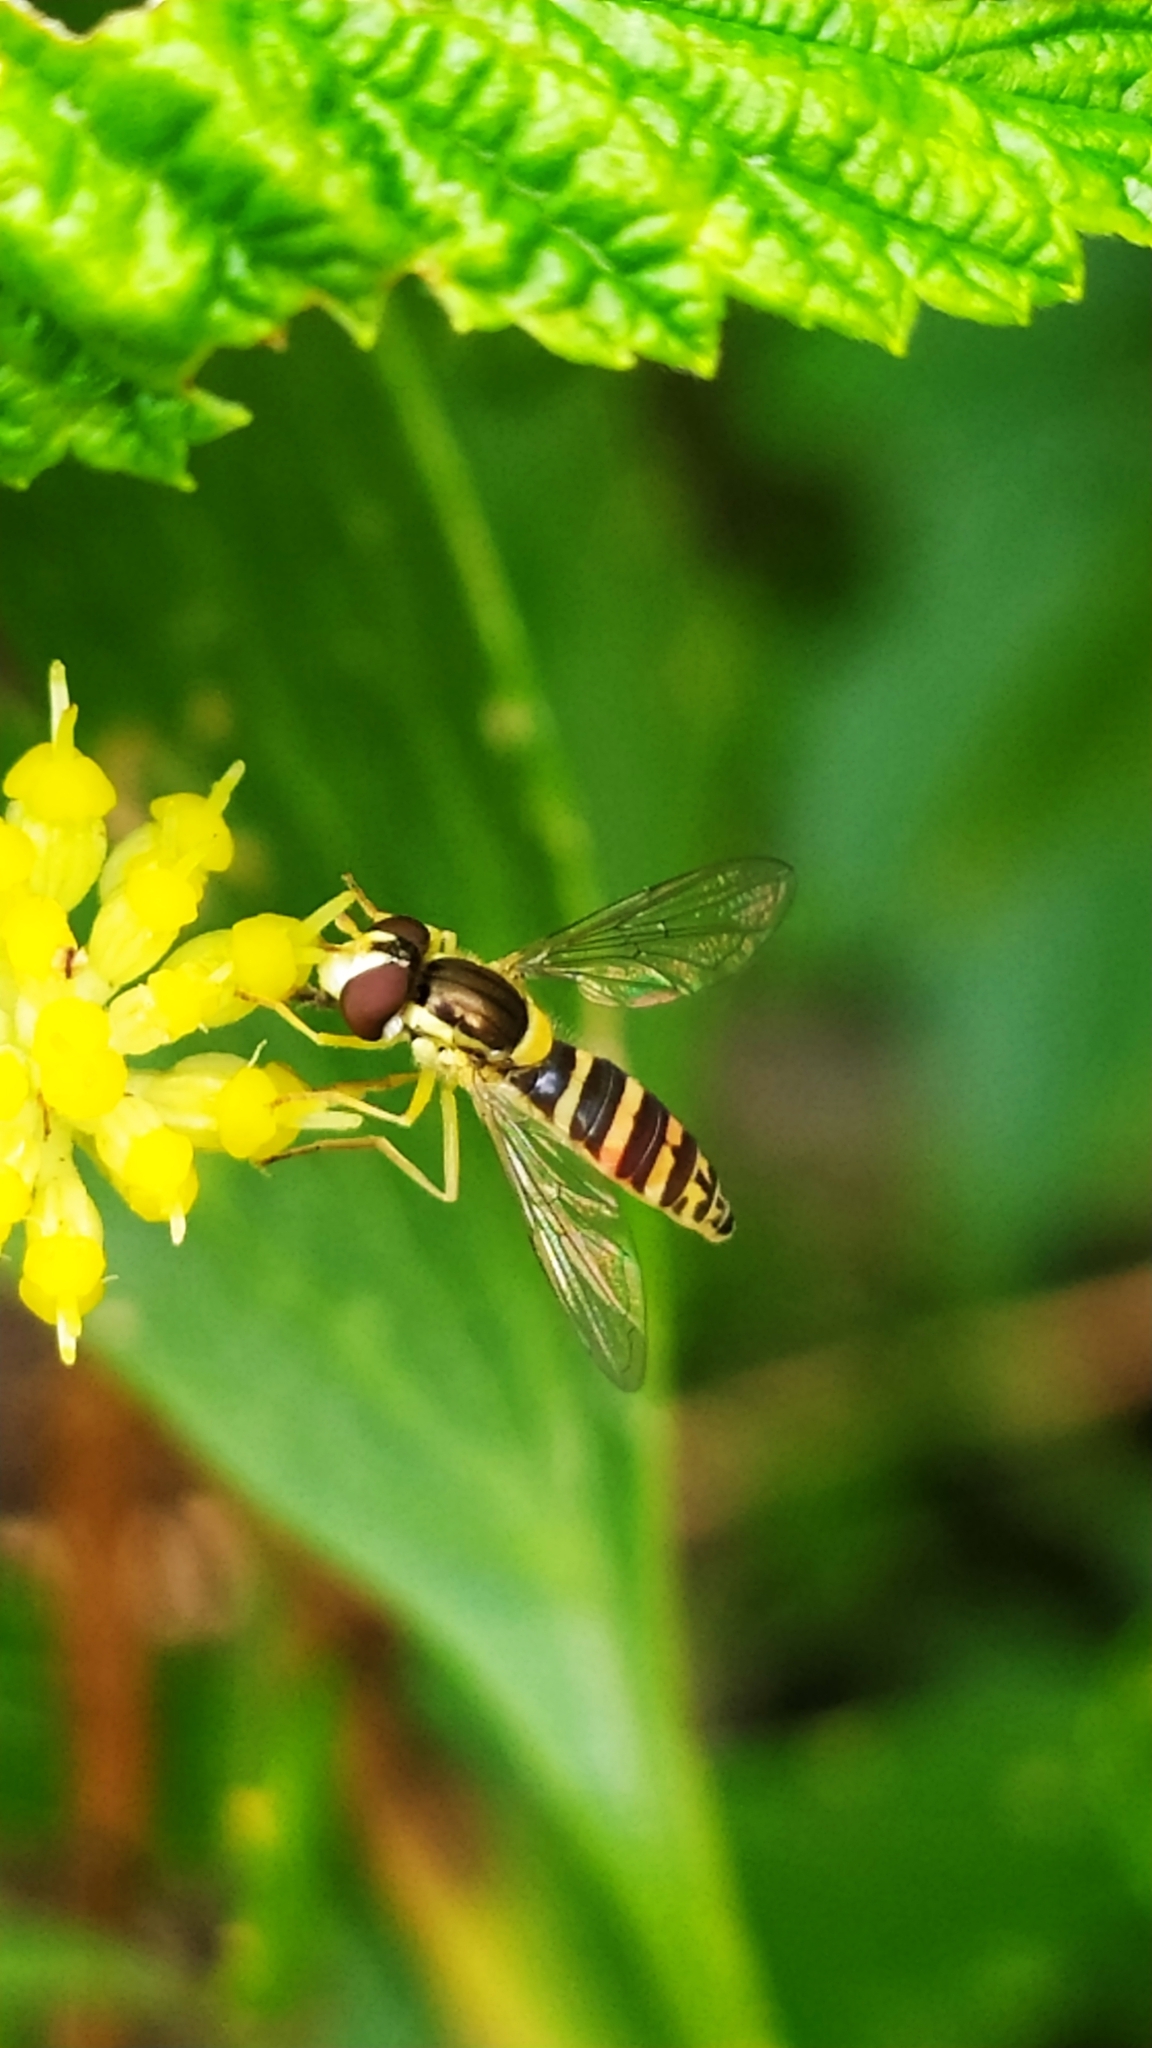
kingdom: Animalia
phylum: Arthropoda
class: Insecta
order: Diptera
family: Syrphidae
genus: Sphaerophoria
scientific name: Sphaerophoria
